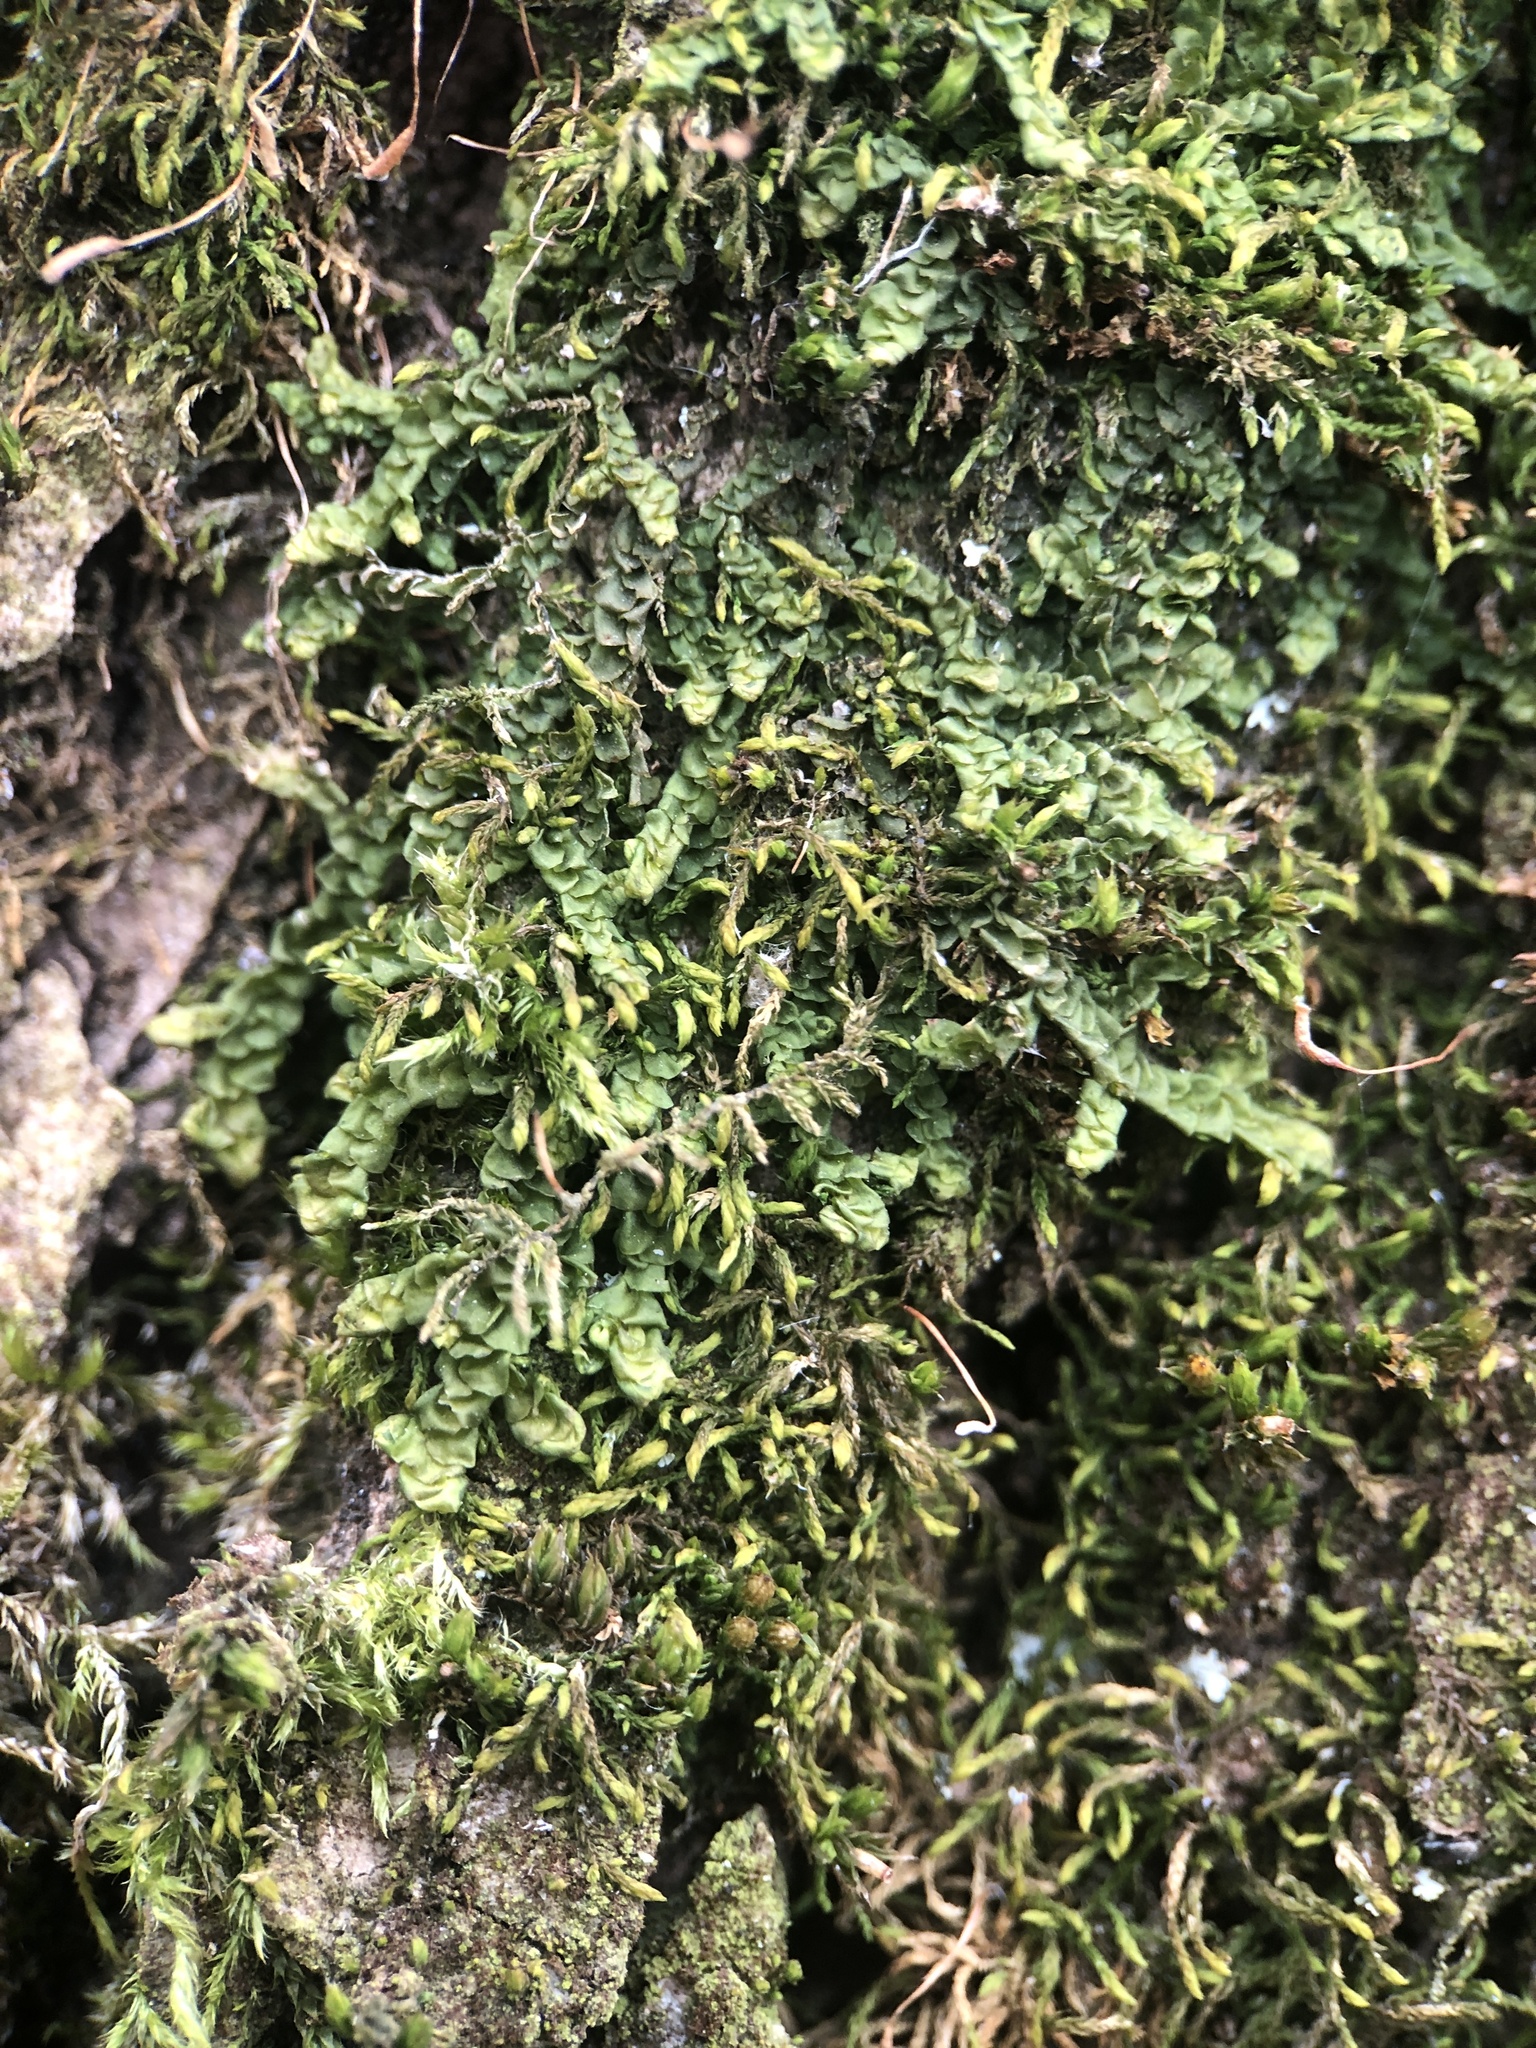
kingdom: Plantae
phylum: Marchantiophyta
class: Jungermanniopsida
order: Porellales
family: Porellaceae
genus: Porella
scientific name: Porella platyphylla
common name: Wall scalewort
